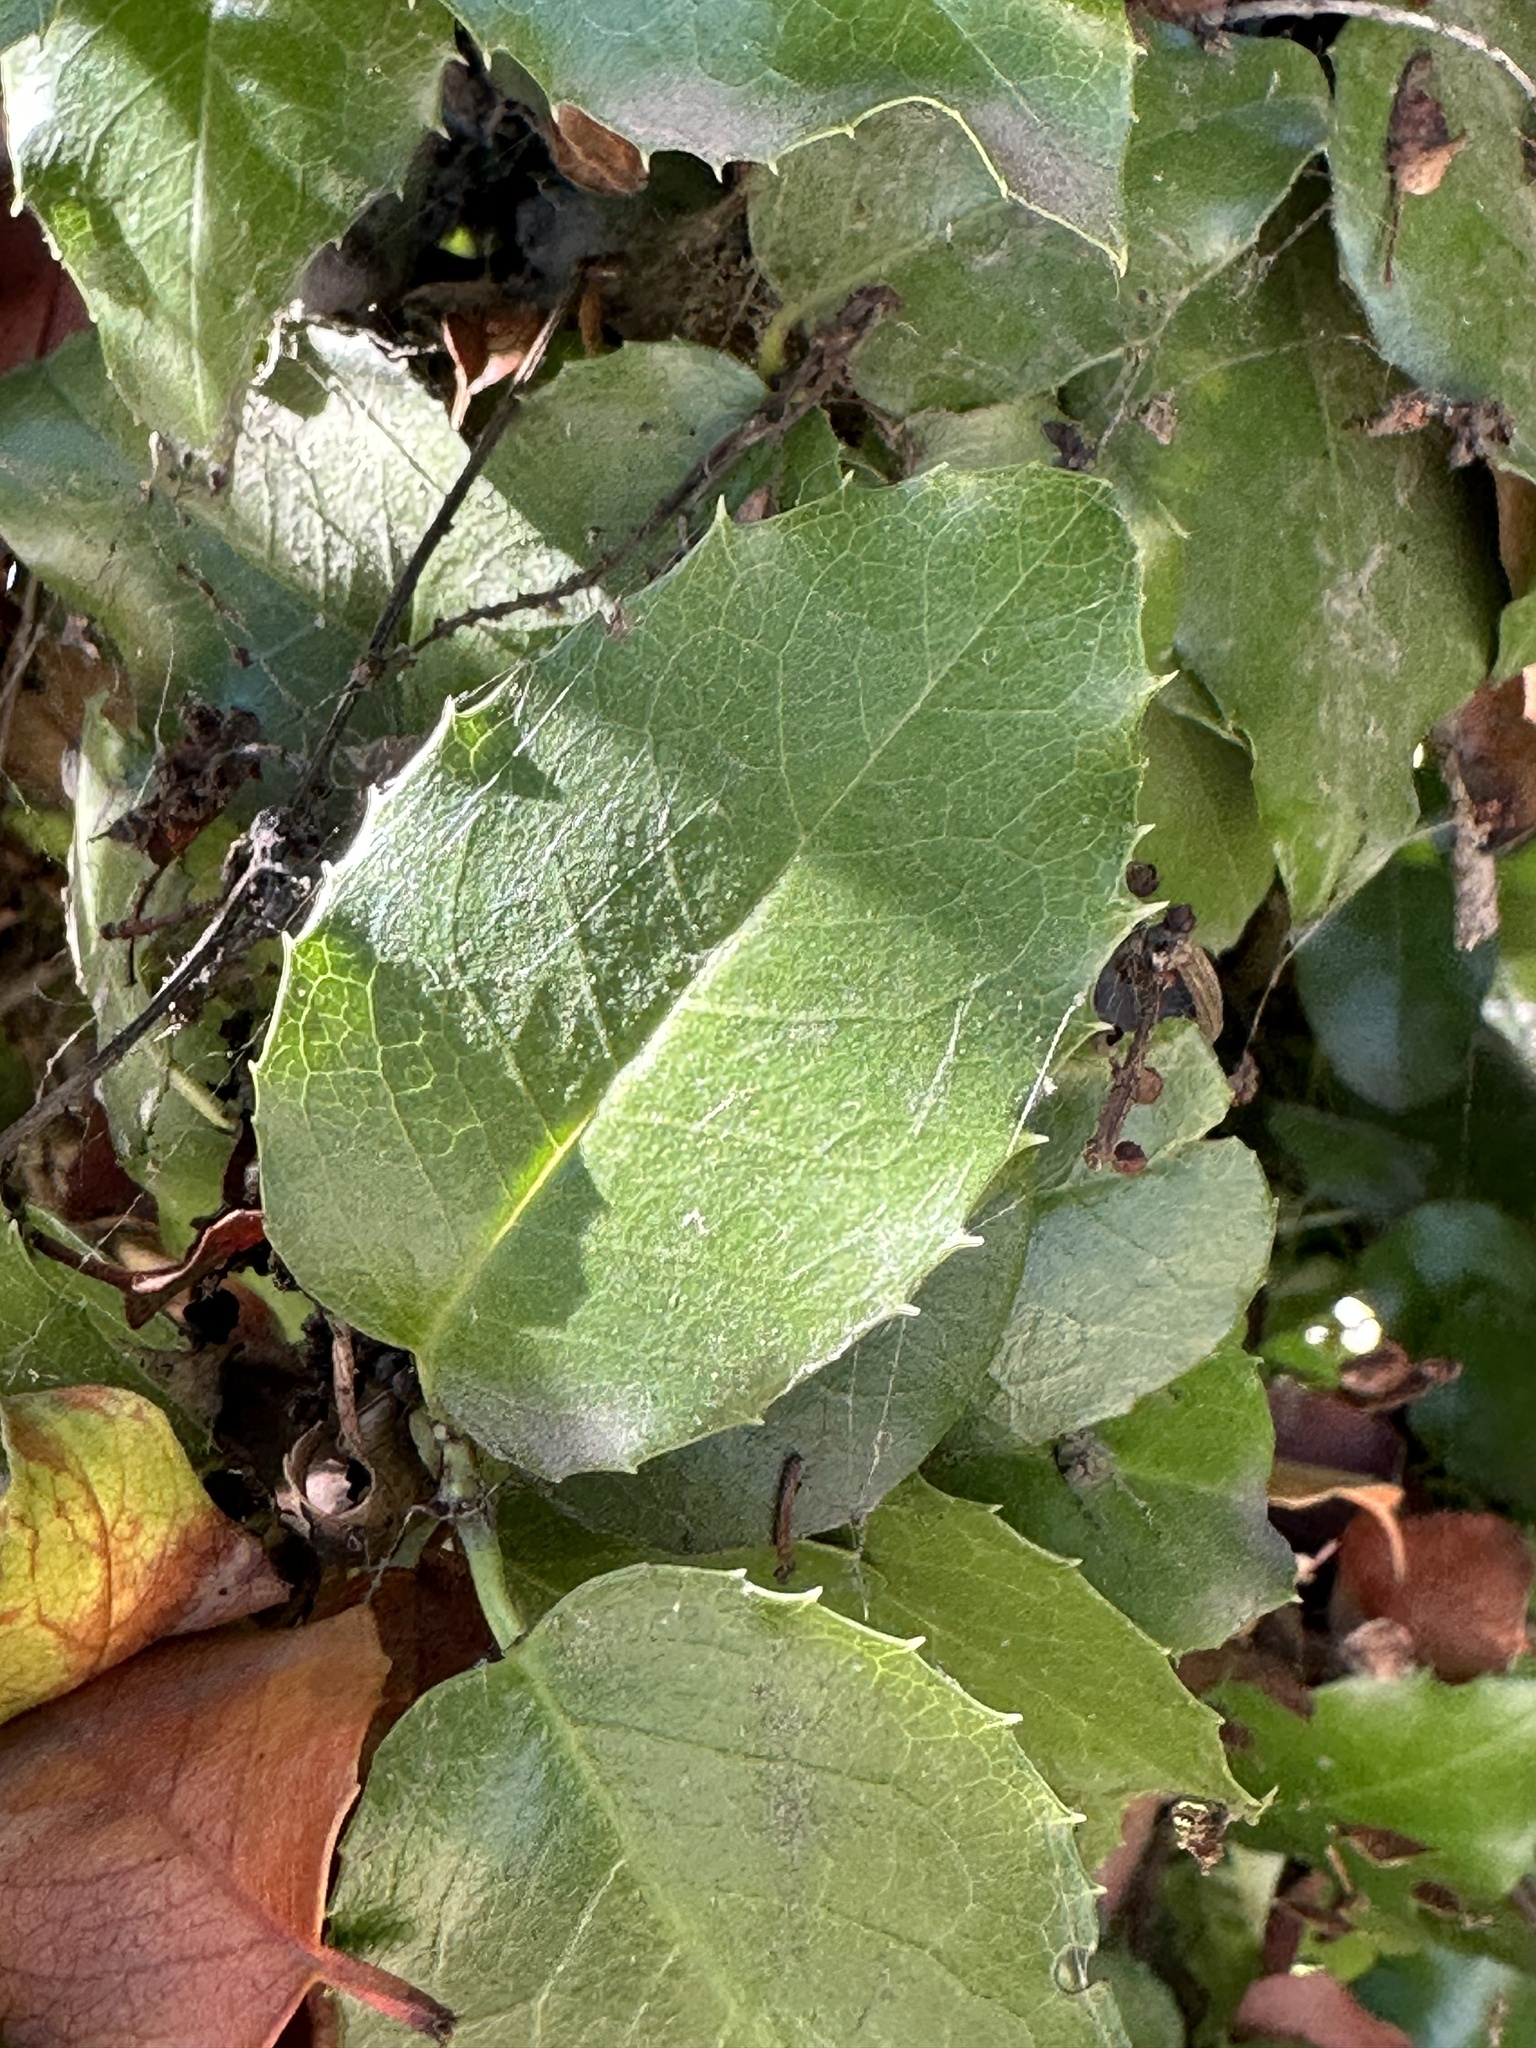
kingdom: Plantae
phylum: Tracheophyta
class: Magnoliopsida
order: Rosales
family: Rosaceae
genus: Prunus
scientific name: Prunus ilicifolia
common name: Hollyleaf cherry
